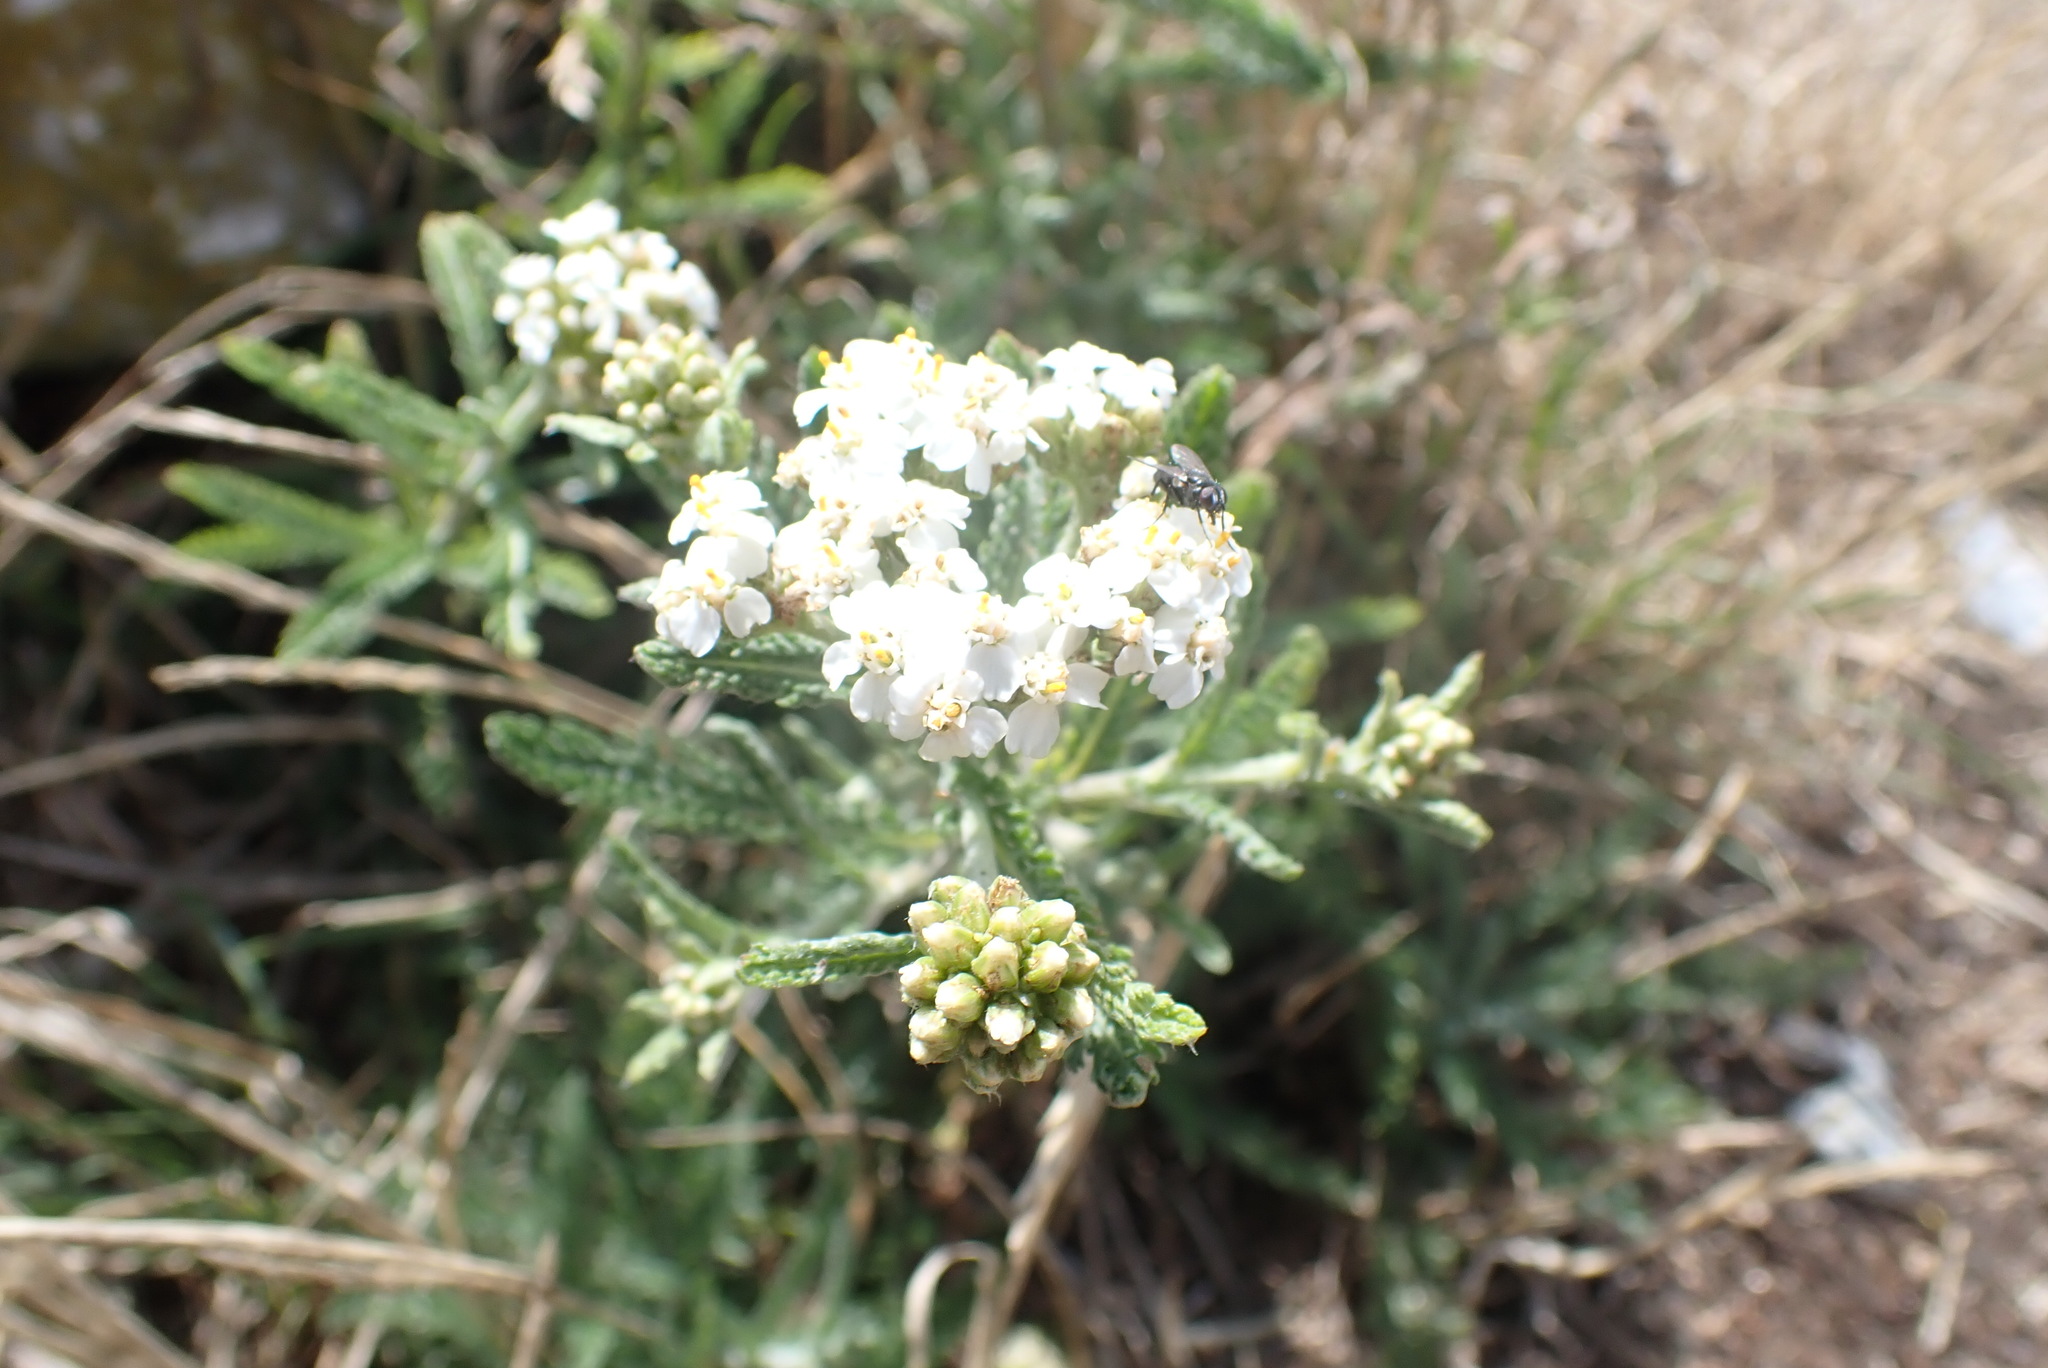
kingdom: Plantae
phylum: Tracheophyta
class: Magnoliopsida
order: Asterales
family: Asteraceae
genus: Achillea
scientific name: Achillea millefolium
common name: Yarrow
